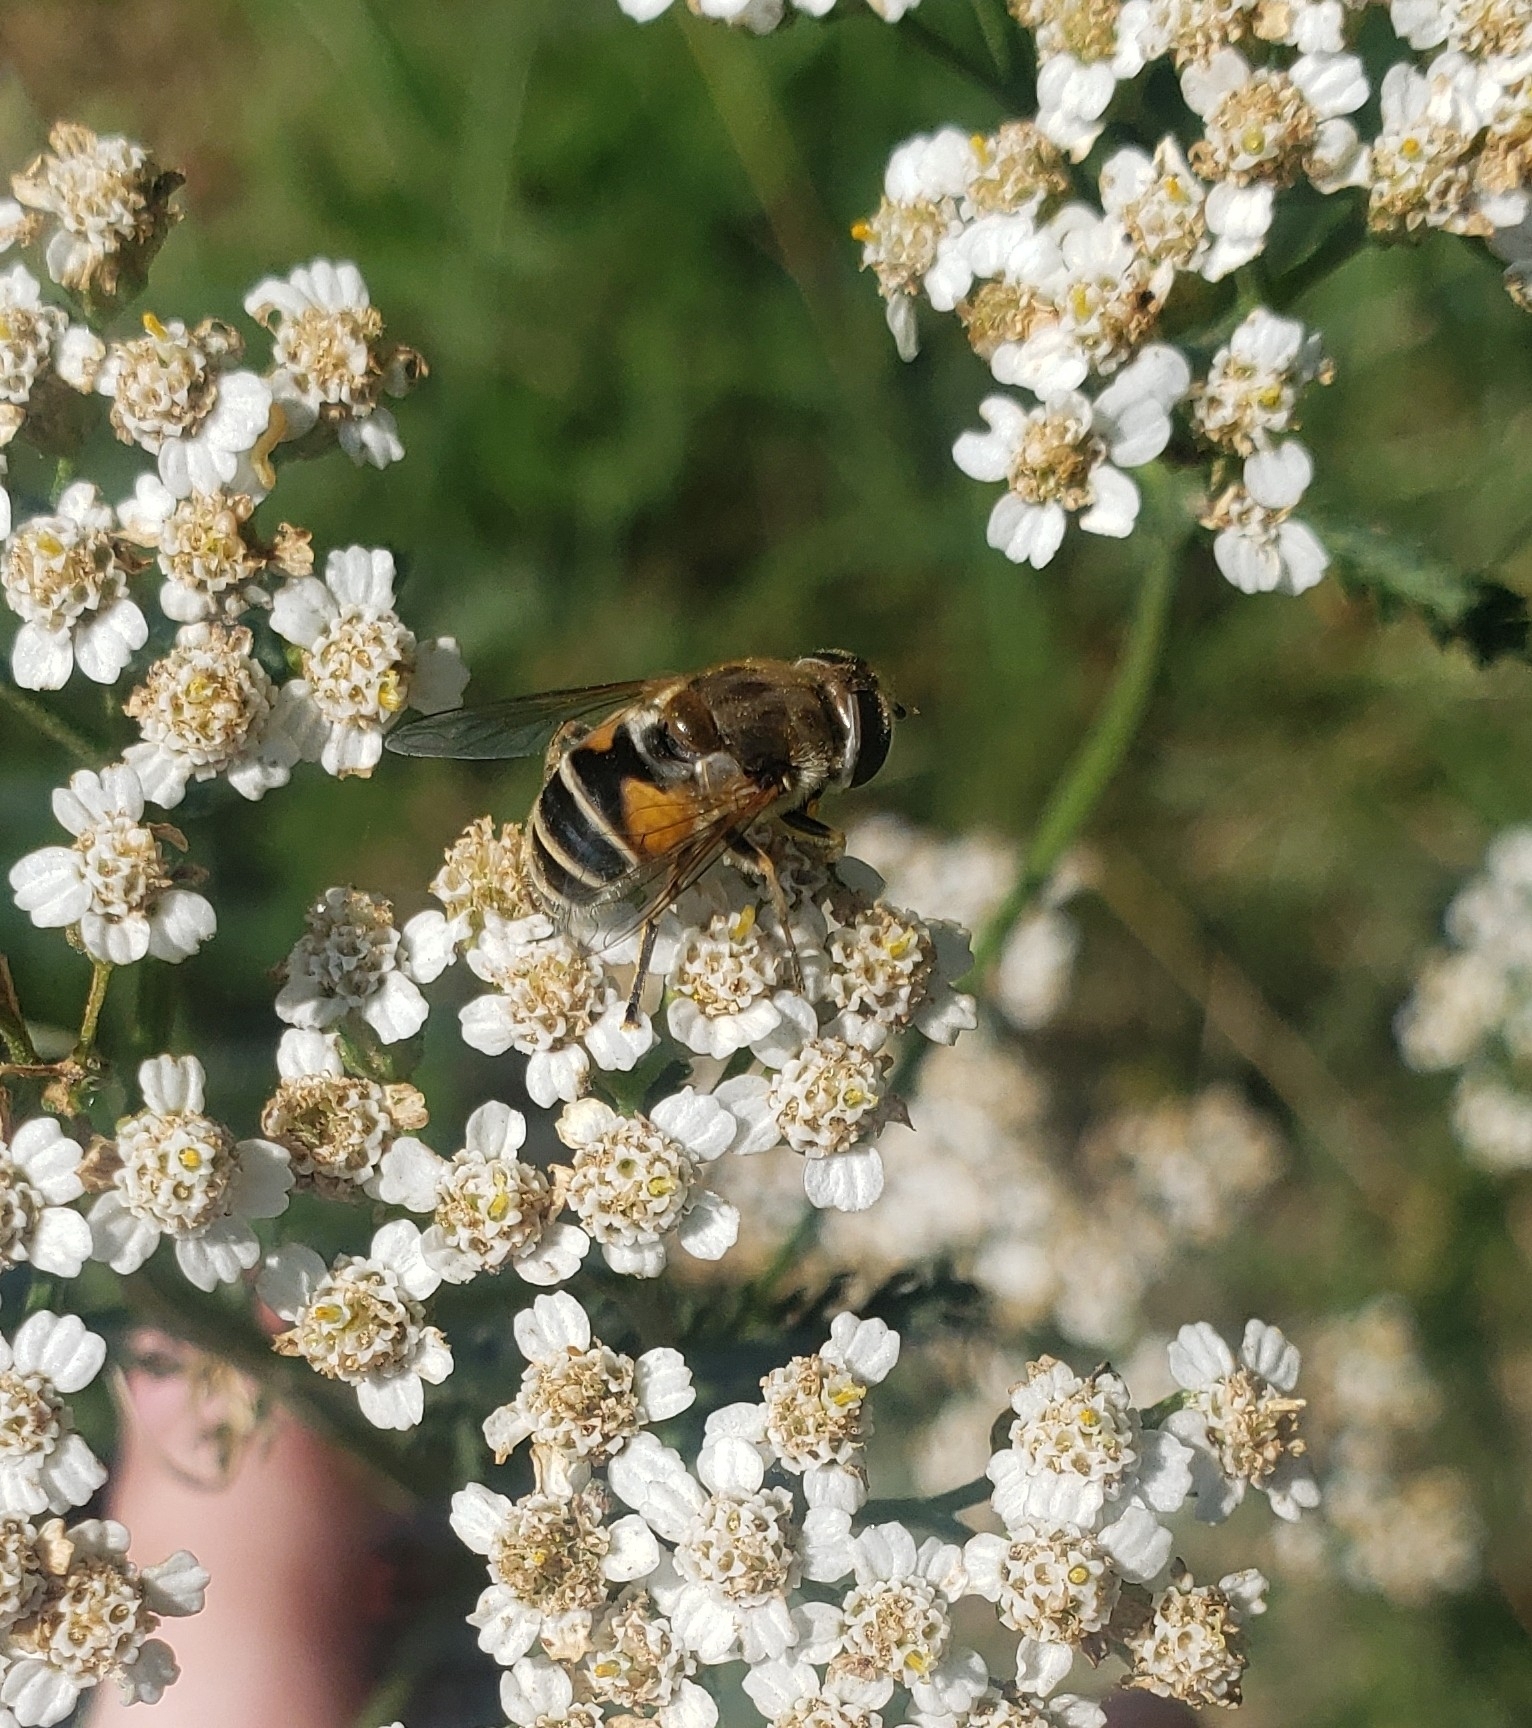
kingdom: Animalia
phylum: Arthropoda
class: Insecta
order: Diptera
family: Syrphidae
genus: Eristalis
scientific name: Eristalis arbustorum
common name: Hover fly
